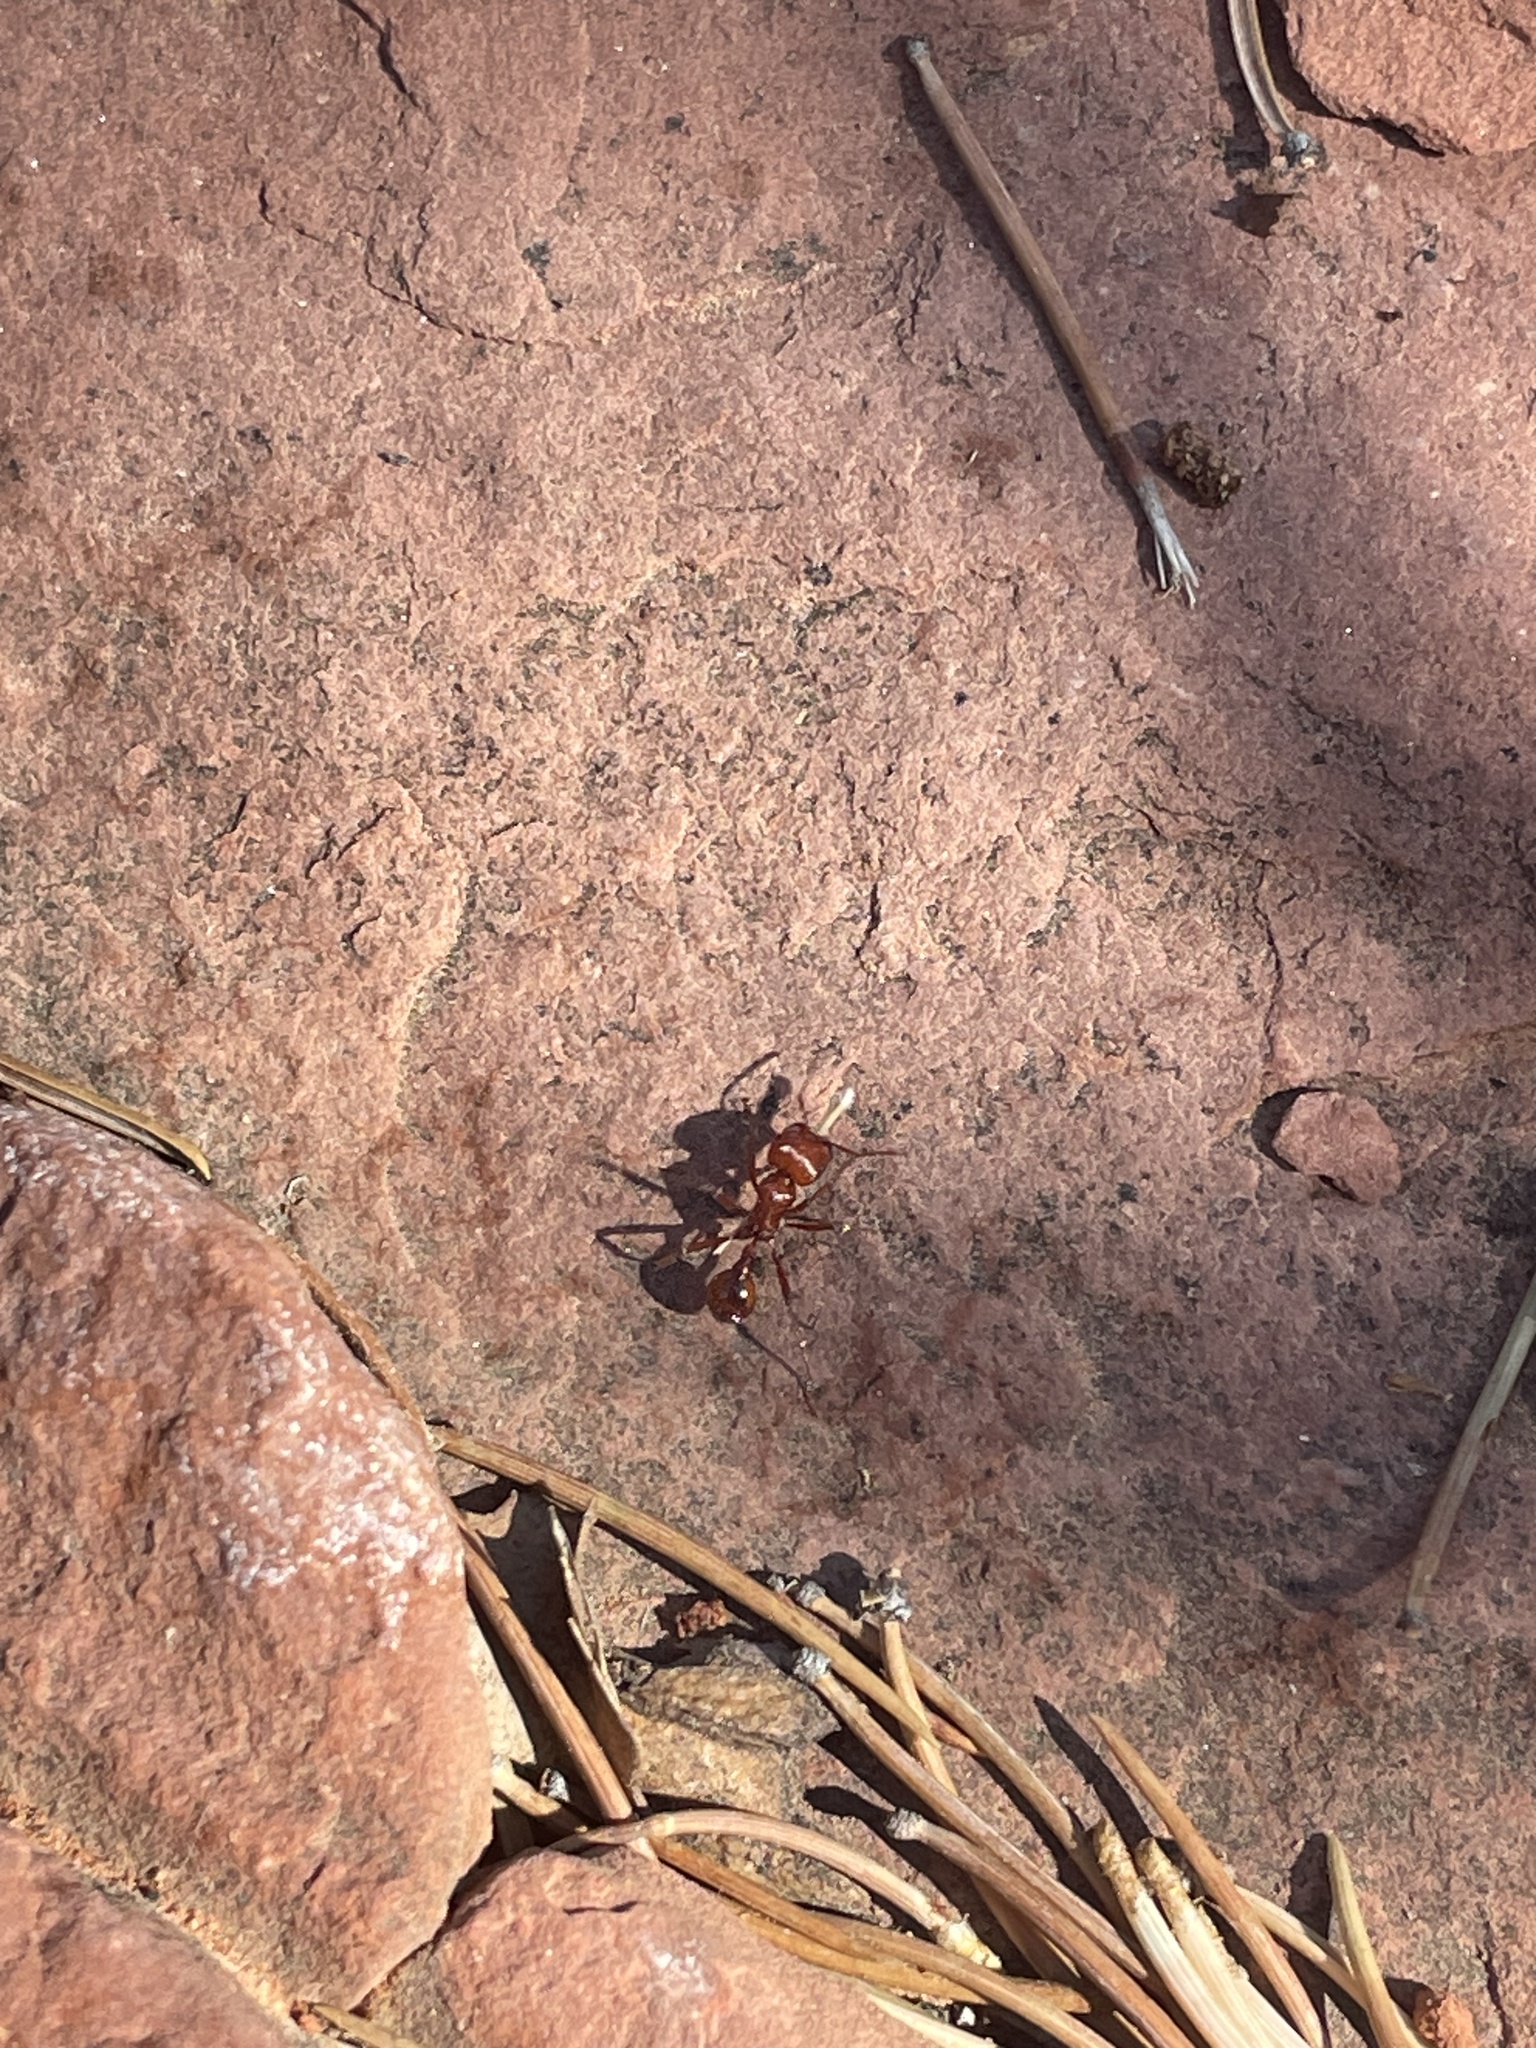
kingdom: Animalia
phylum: Arthropoda
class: Insecta
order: Hymenoptera
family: Formicidae
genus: Pogonomyrmex
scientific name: Pogonomyrmex barbatus
